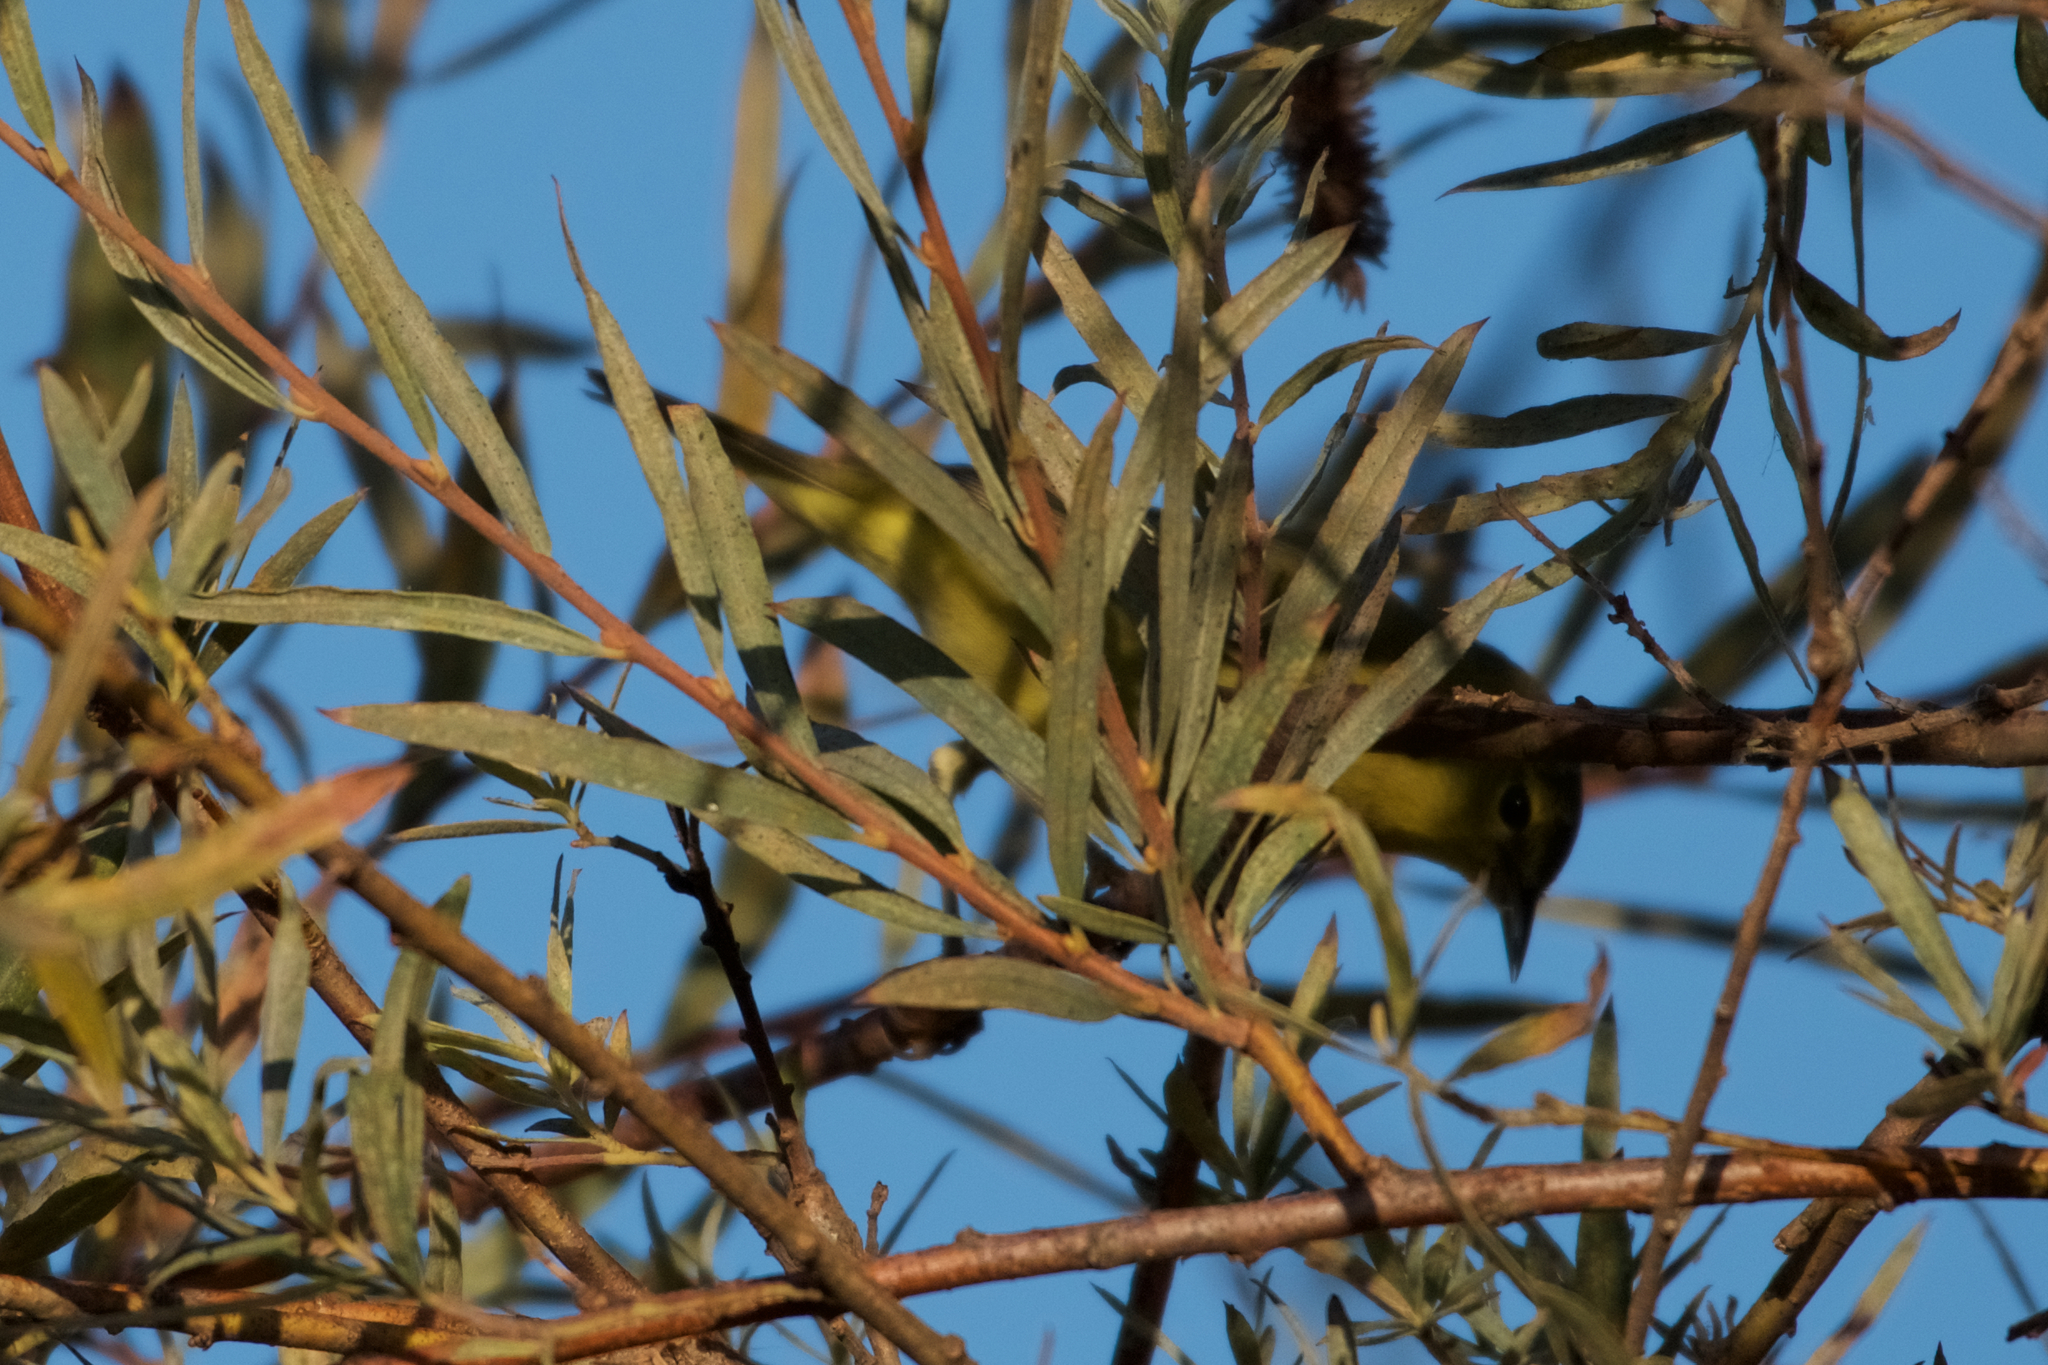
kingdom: Animalia
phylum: Chordata
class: Aves
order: Passeriformes
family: Parulidae
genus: Leiothlypis
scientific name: Leiothlypis celata
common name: Orange-crowned warbler
